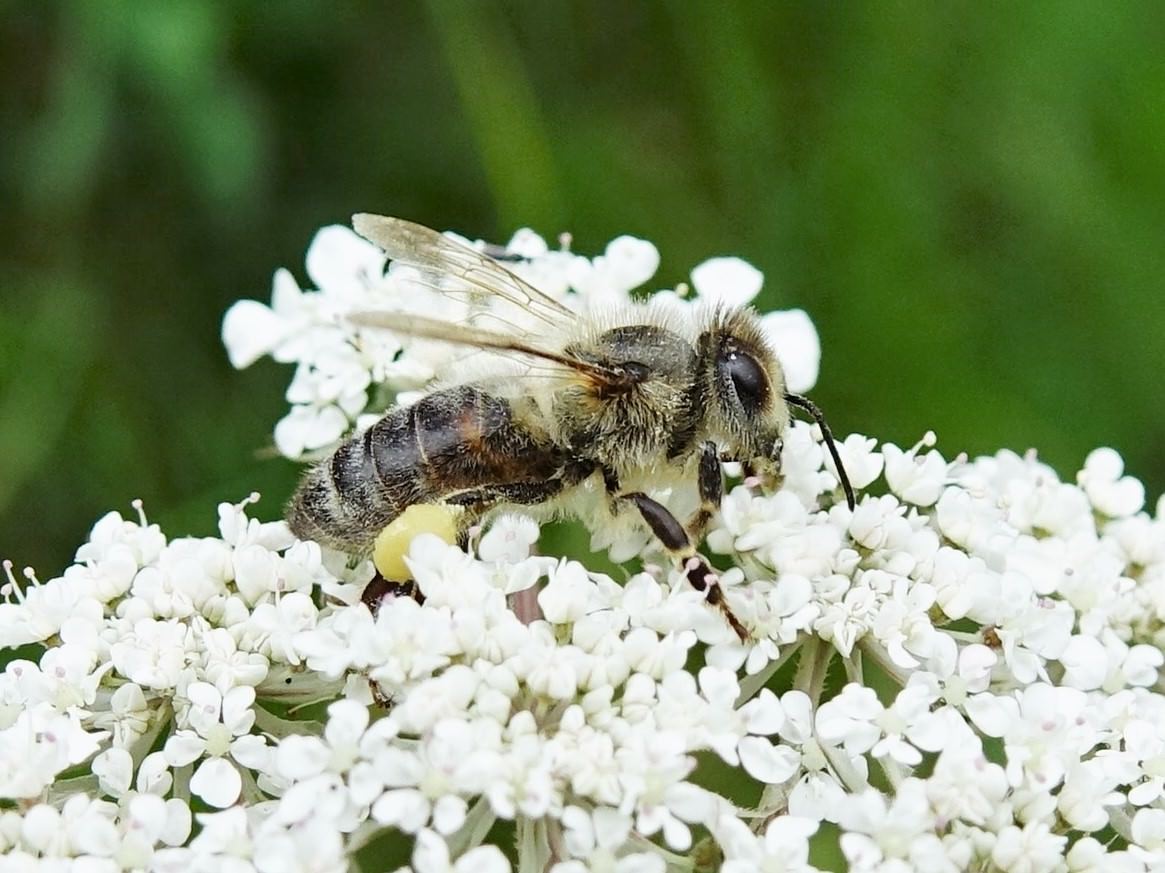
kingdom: Animalia
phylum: Arthropoda
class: Insecta
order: Hymenoptera
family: Apidae
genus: Apis
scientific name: Apis mellifera
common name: Honey bee
